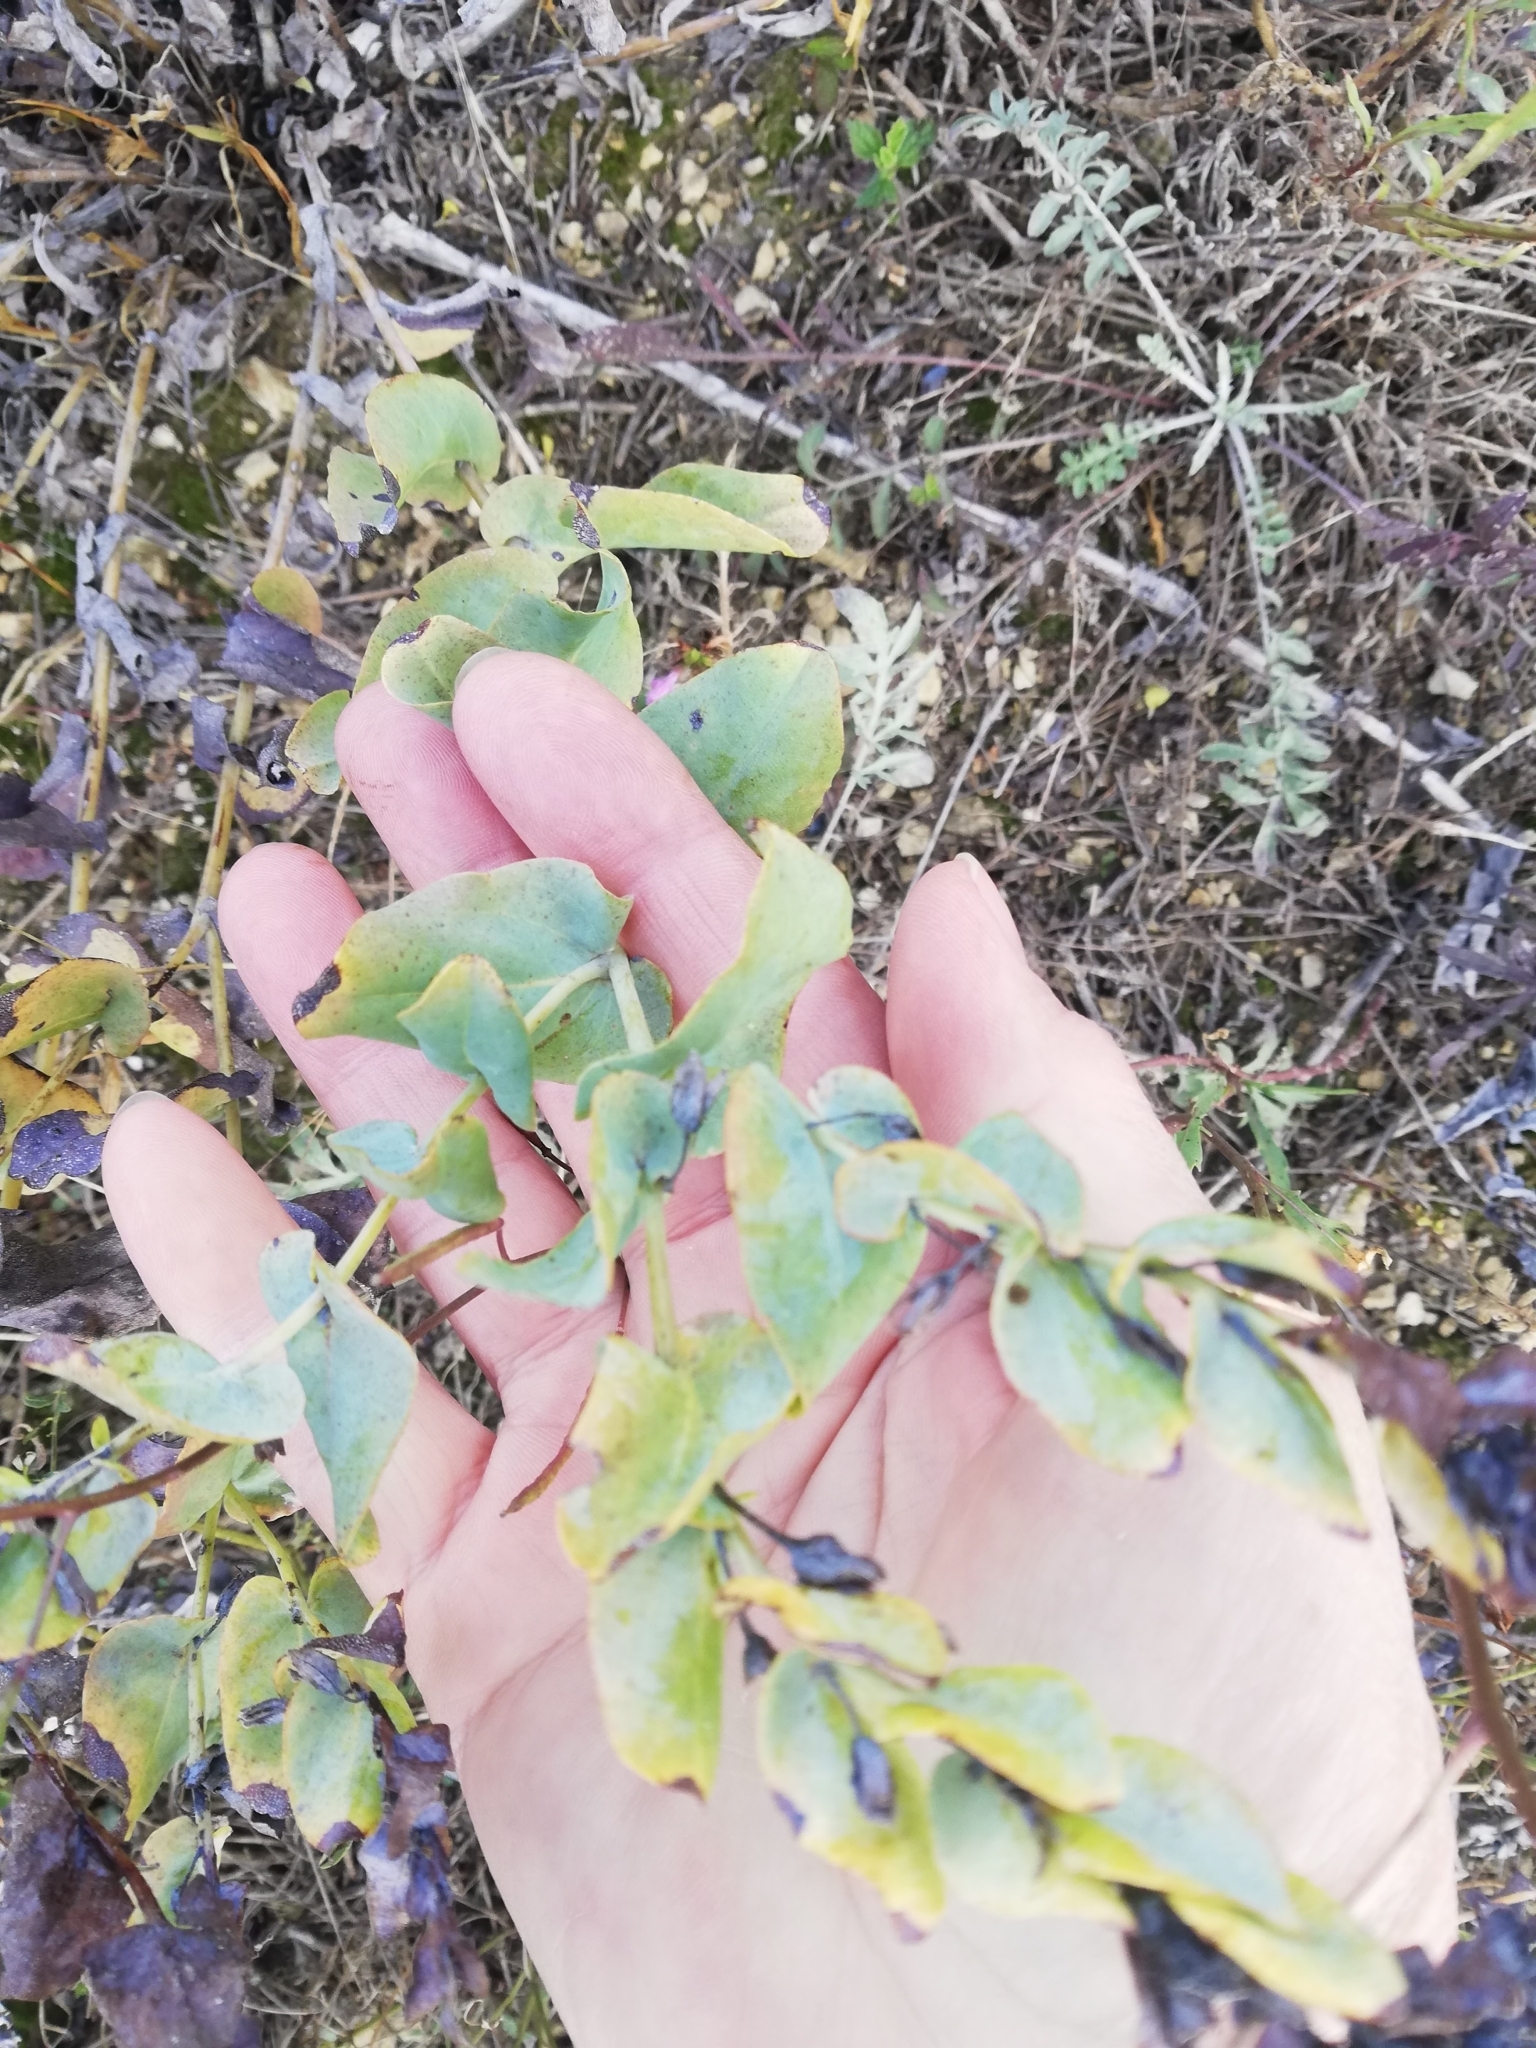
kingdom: Plantae
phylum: Tracheophyta
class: Magnoliopsida
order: Boraginales
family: Boraginaceae
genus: Cerinthe
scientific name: Cerinthe minor
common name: Lesser honeywort
